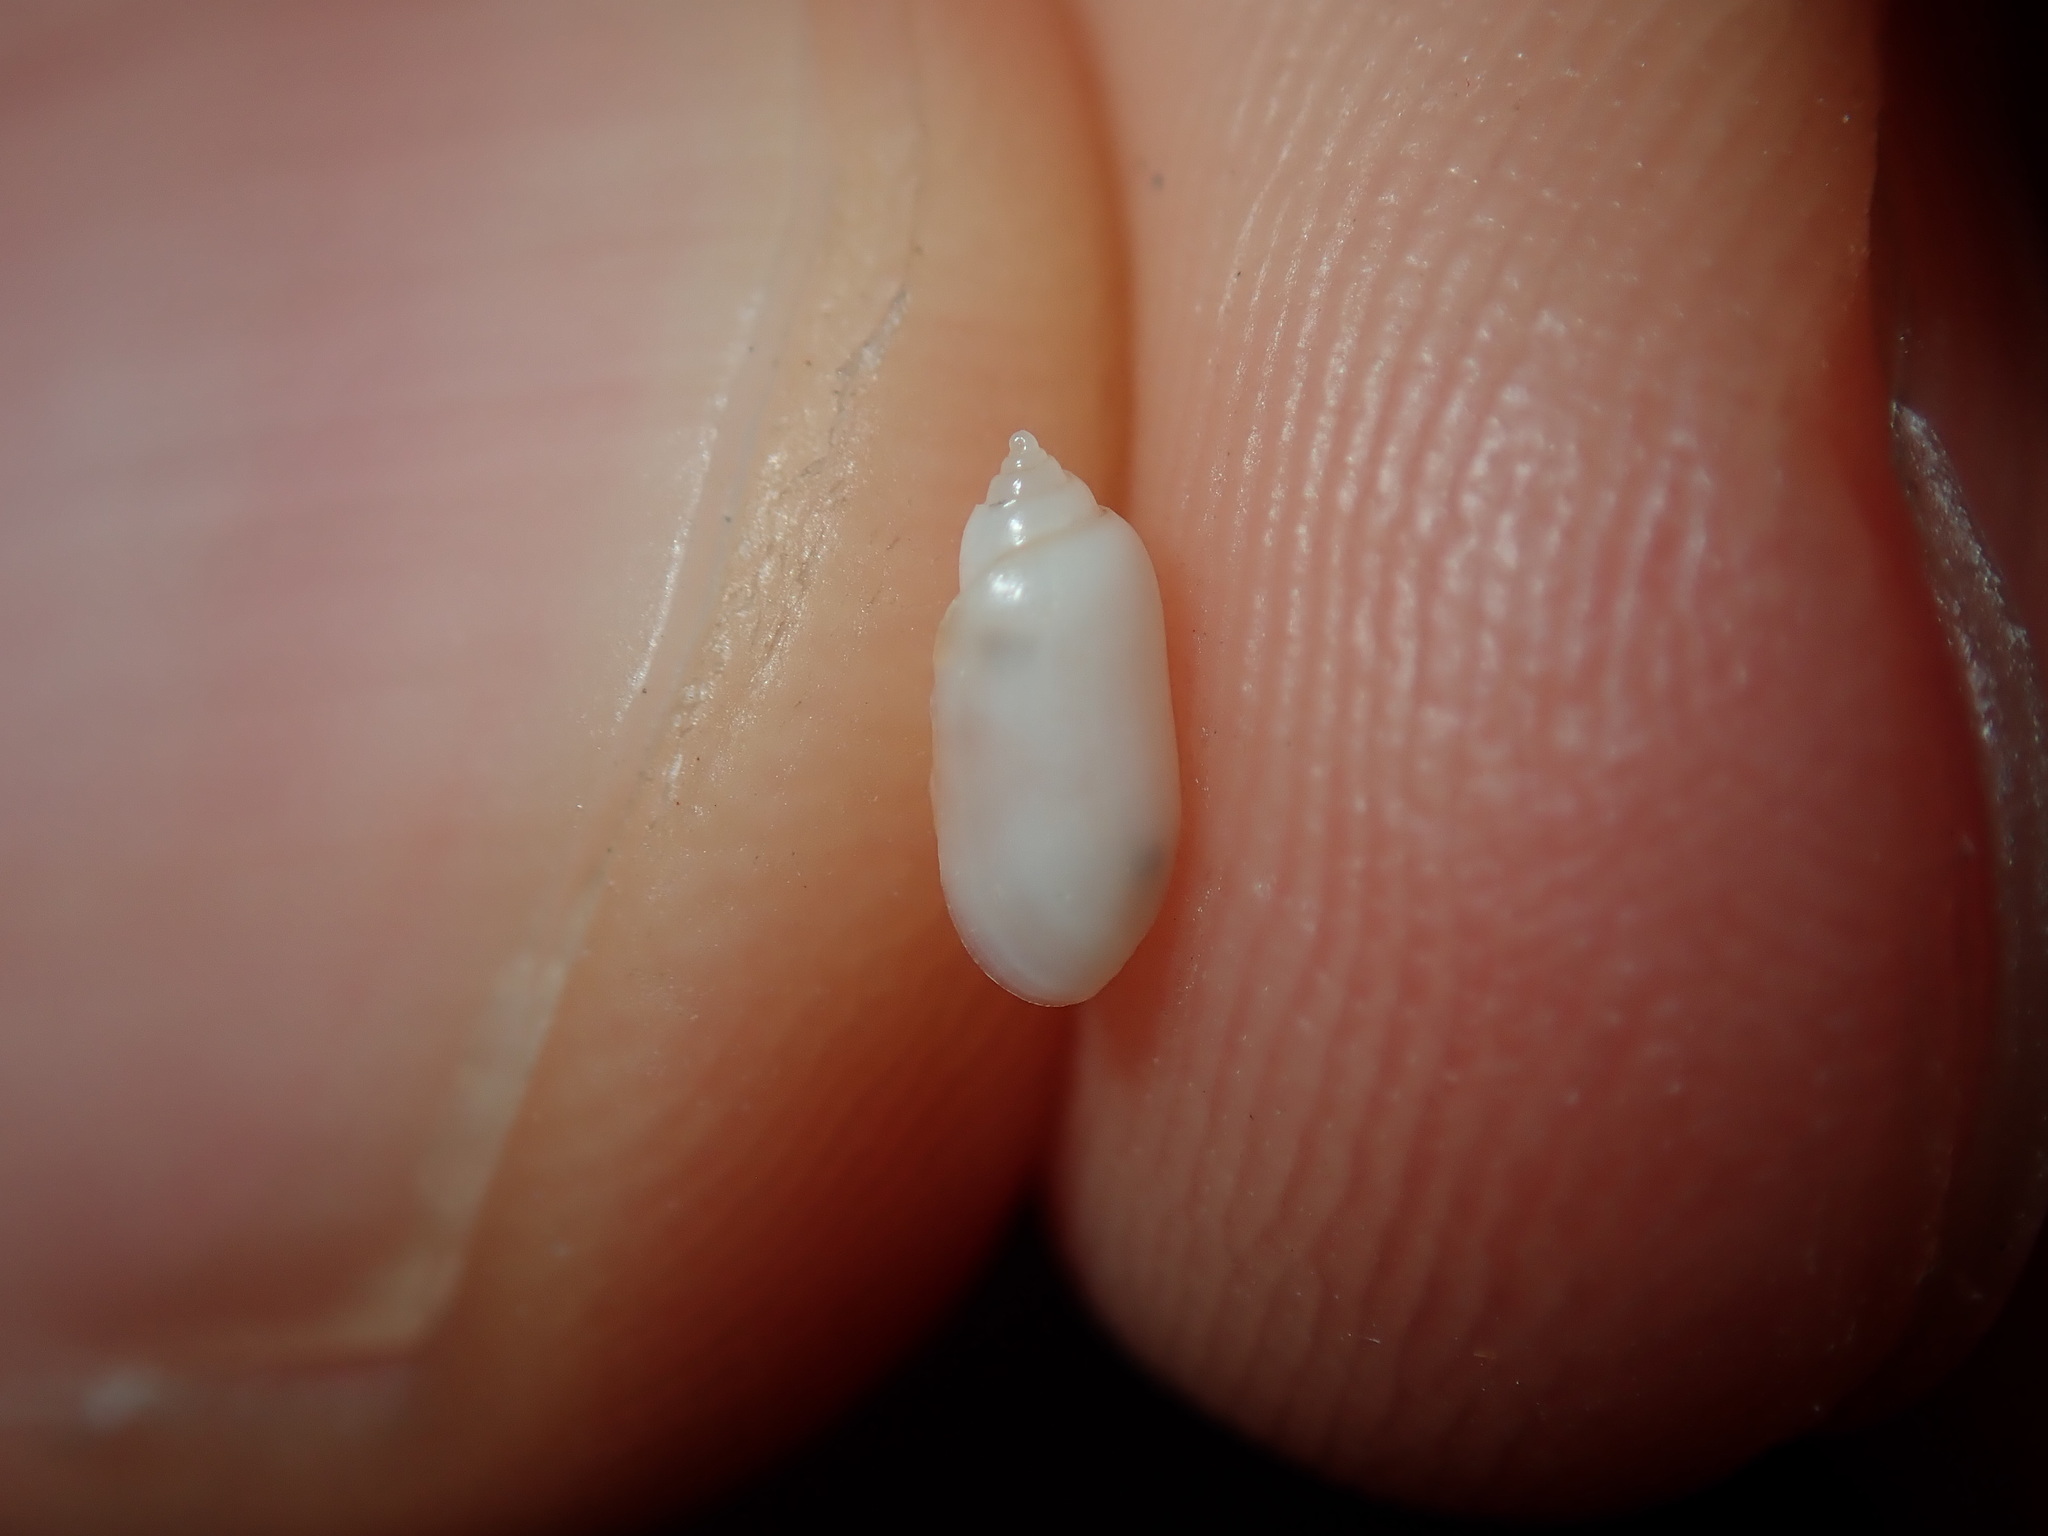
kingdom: Animalia
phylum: Mollusca
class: Gastropoda
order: Cephalaspidea
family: Tornatinidae
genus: Acteocina
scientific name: Acteocina apicina
